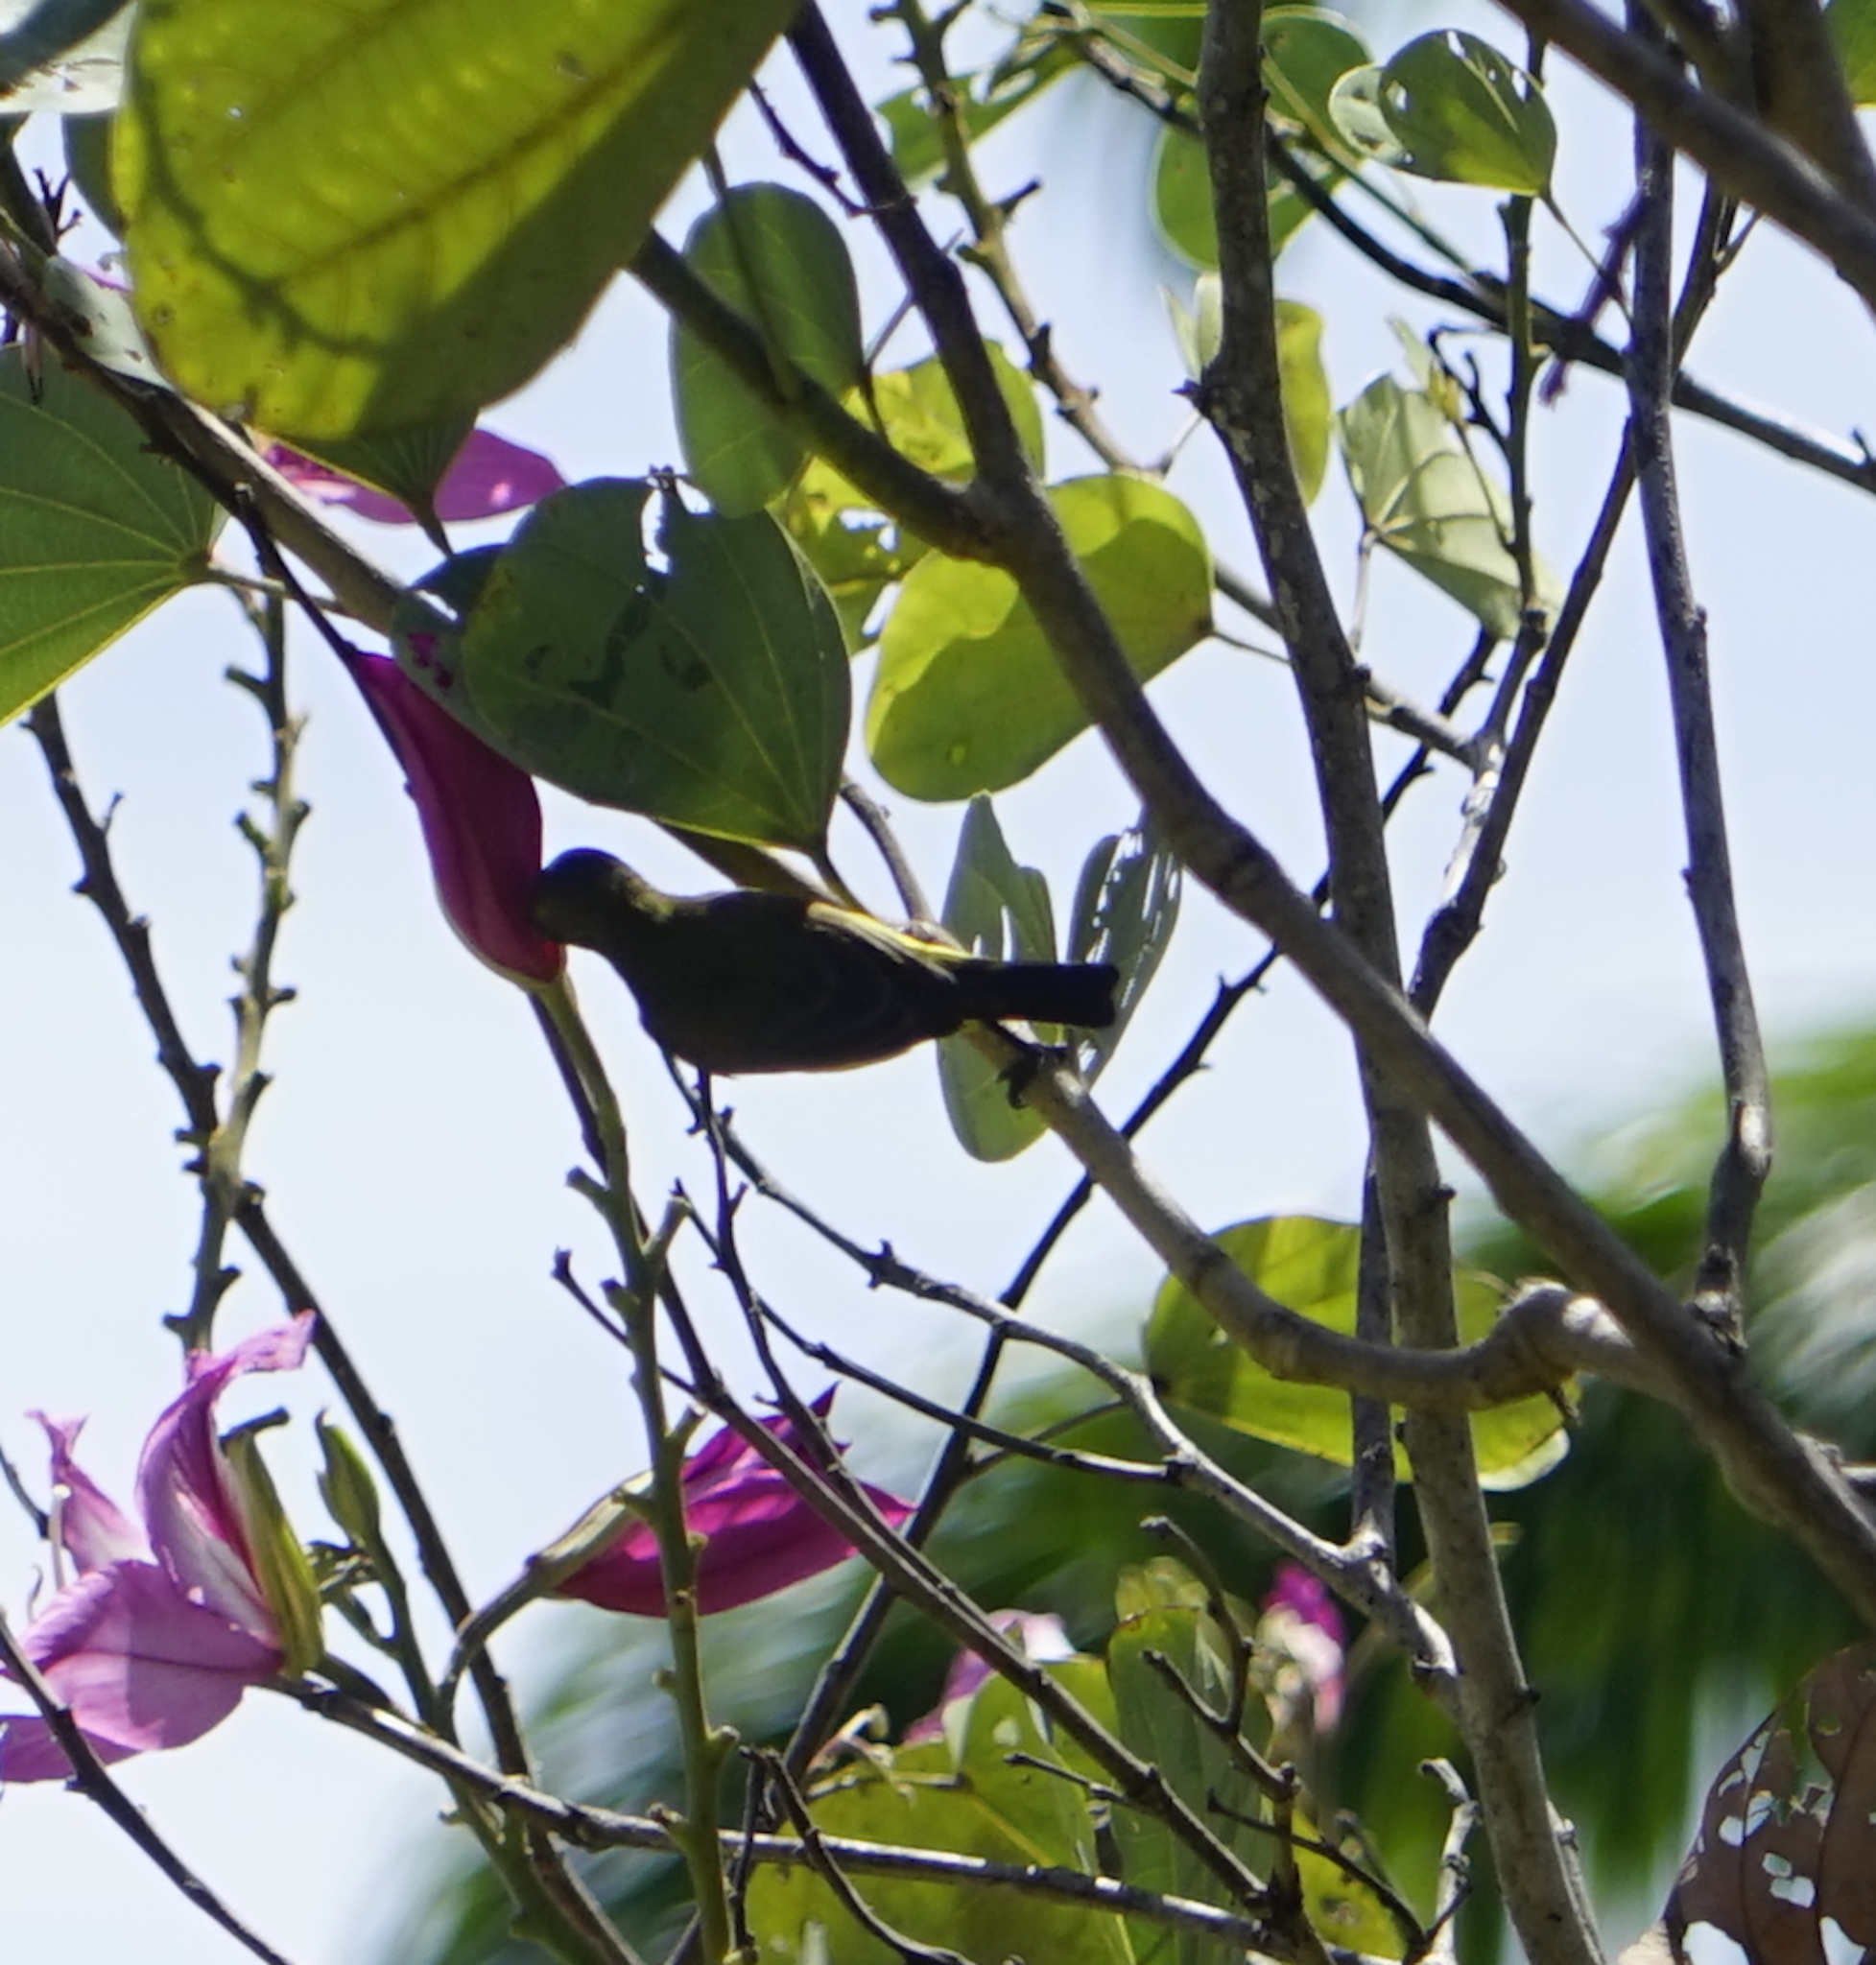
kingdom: Animalia
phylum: Chordata
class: Aves
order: Passeriformes
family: Nectariniidae
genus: Cinnyris
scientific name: Cinnyris
